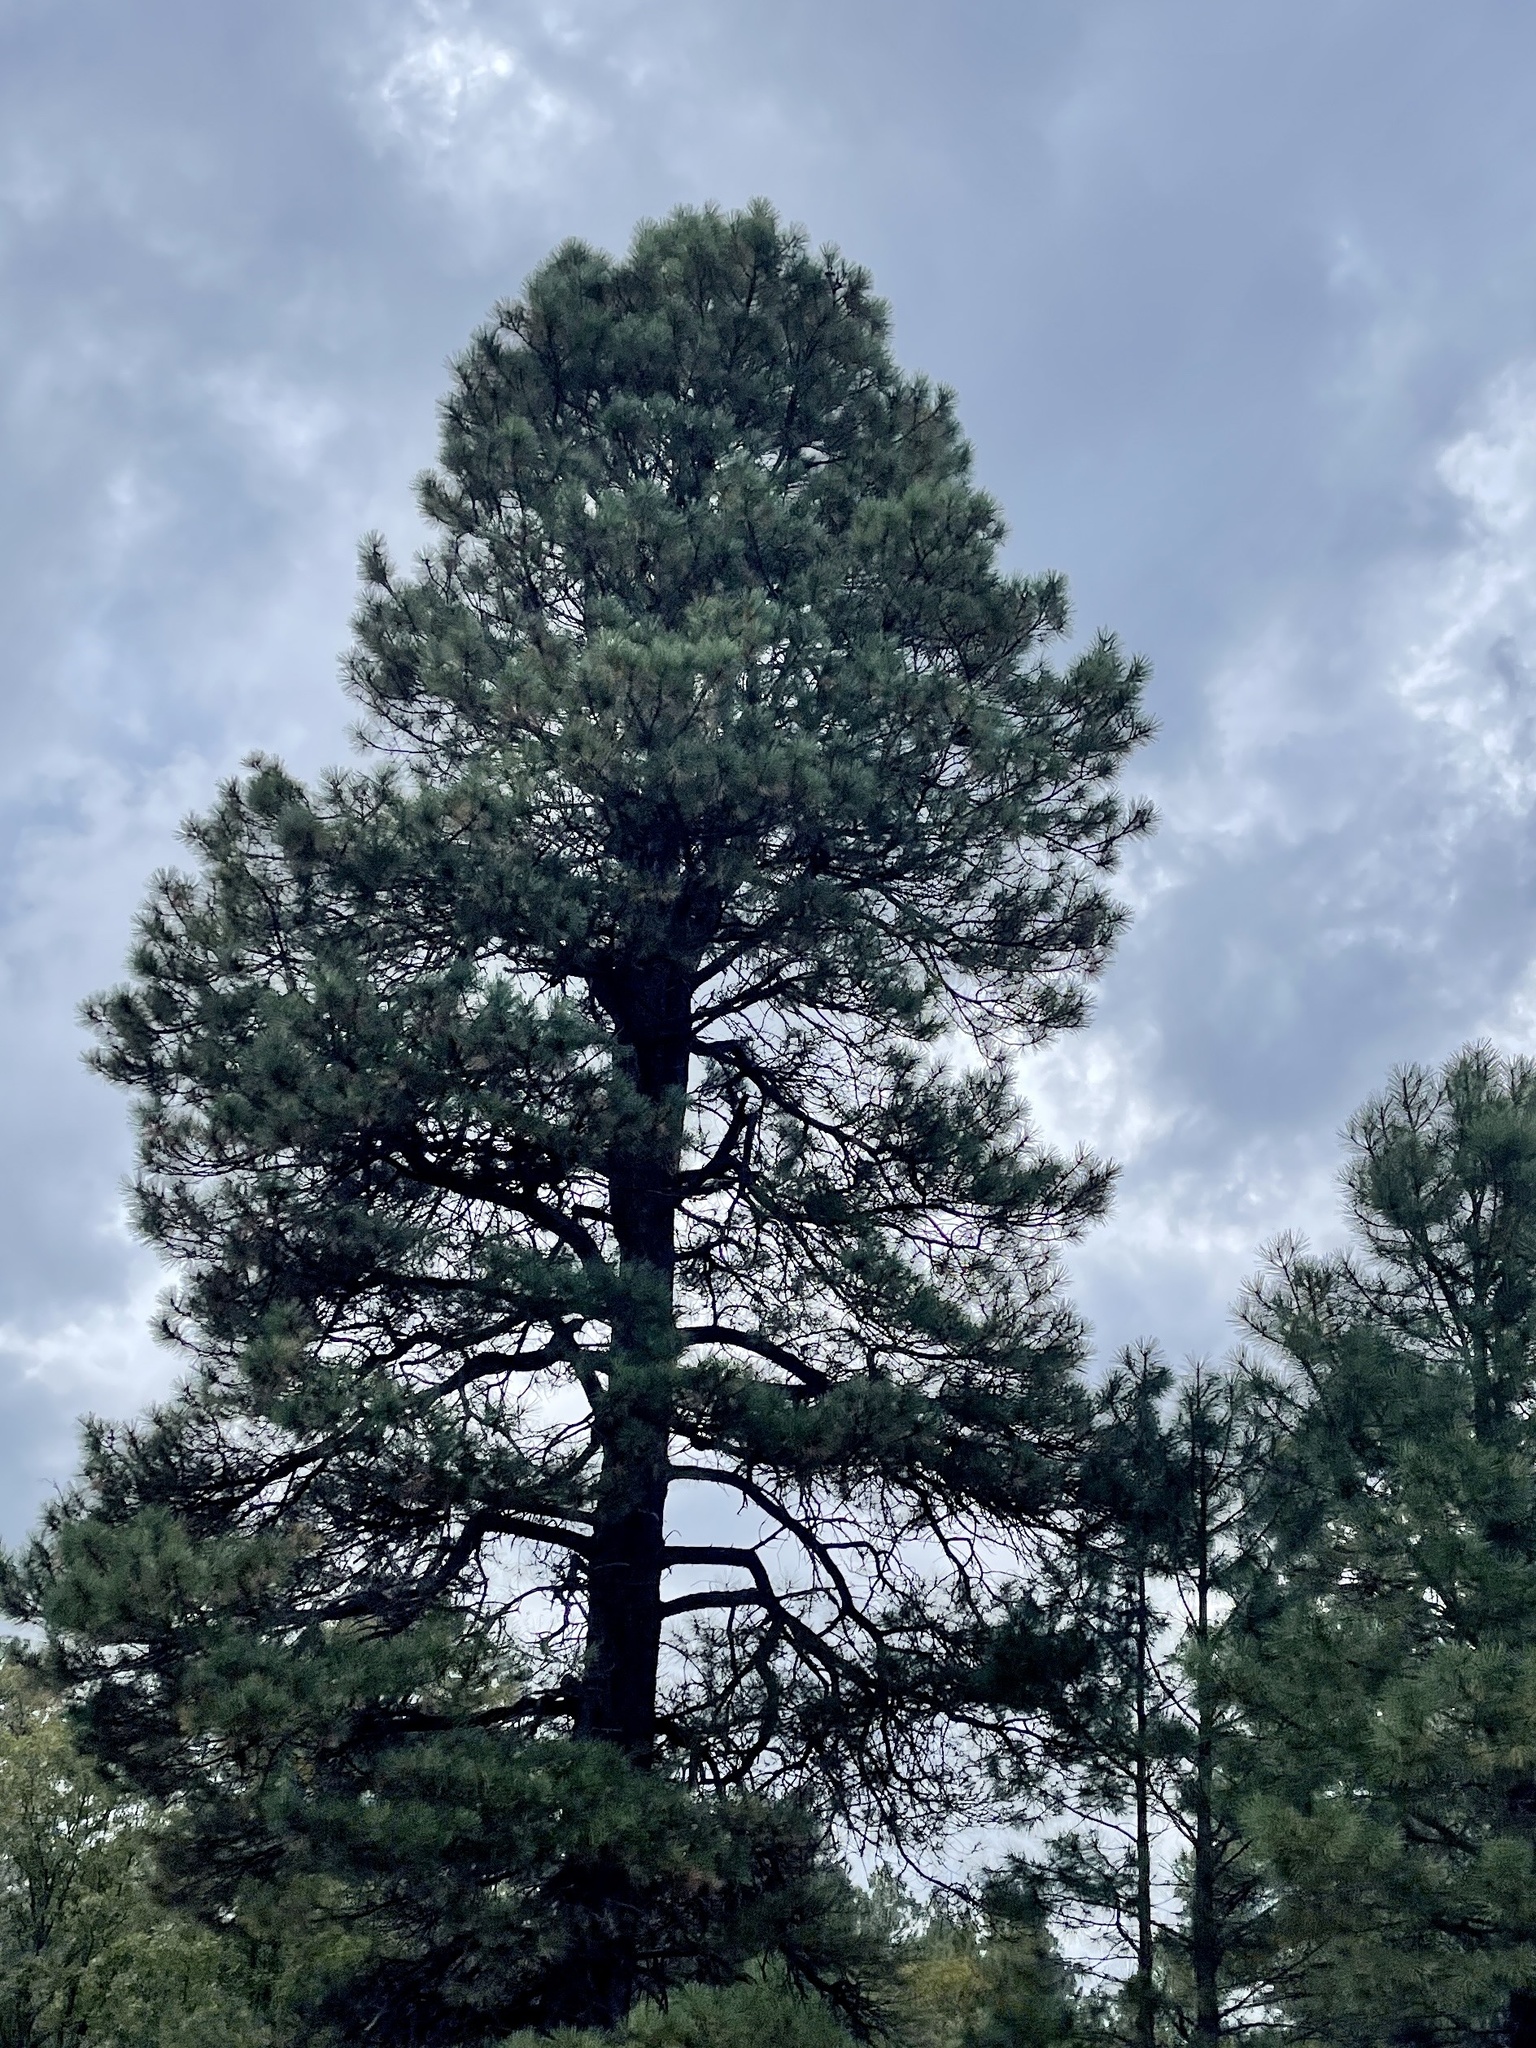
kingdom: Plantae
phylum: Tracheophyta
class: Pinopsida
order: Pinales
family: Pinaceae
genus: Pinus
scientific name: Pinus ponderosa
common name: Western yellow-pine
